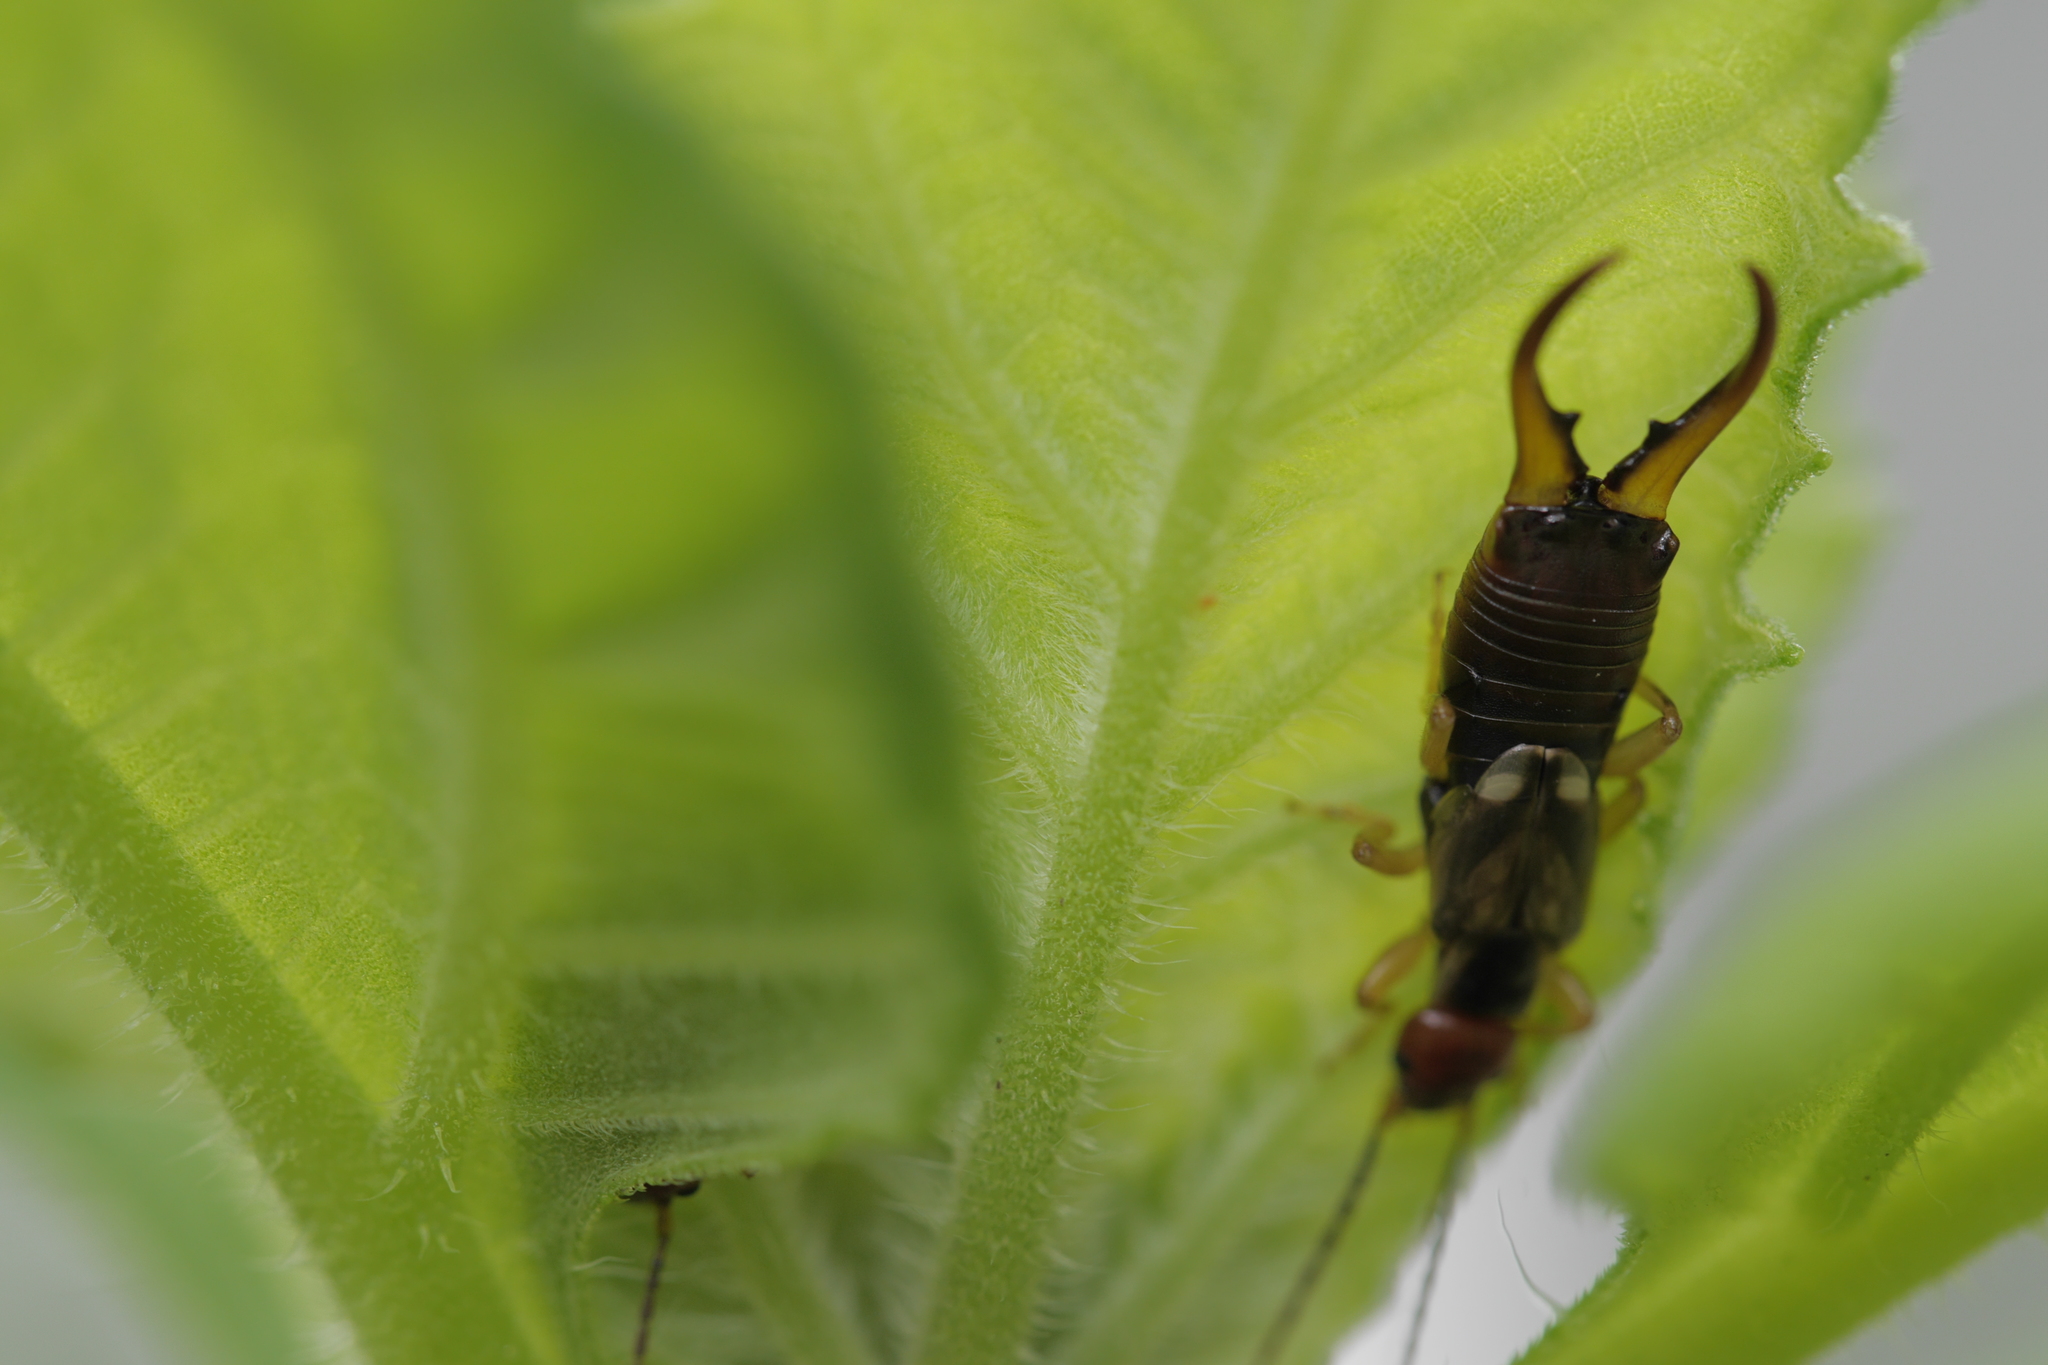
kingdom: Animalia
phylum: Arthropoda
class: Insecta
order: Dermaptera
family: Forficulidae
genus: Forficula
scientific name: Forficula
